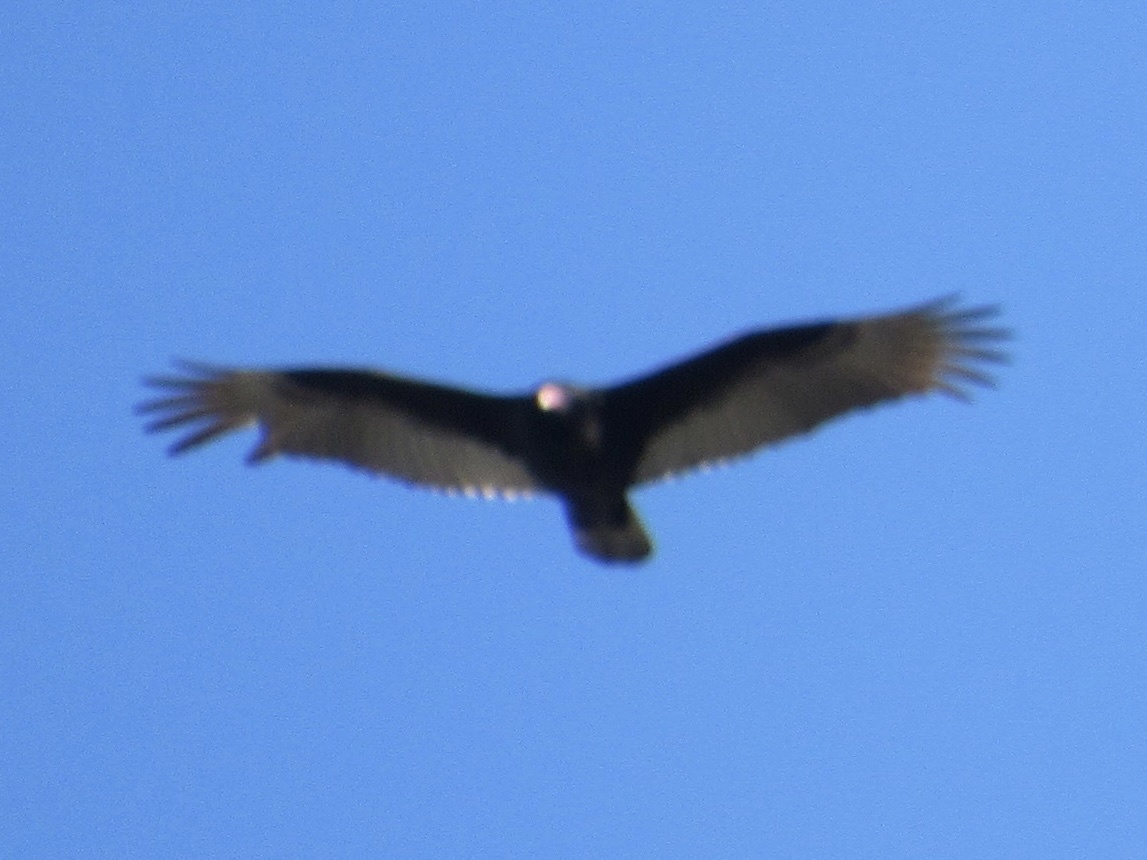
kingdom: Animalia
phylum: Chordata
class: Aves
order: Accipitriformes
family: Cathartidae
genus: Cathartes
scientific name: Cathartes aura
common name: Turkey vulture
